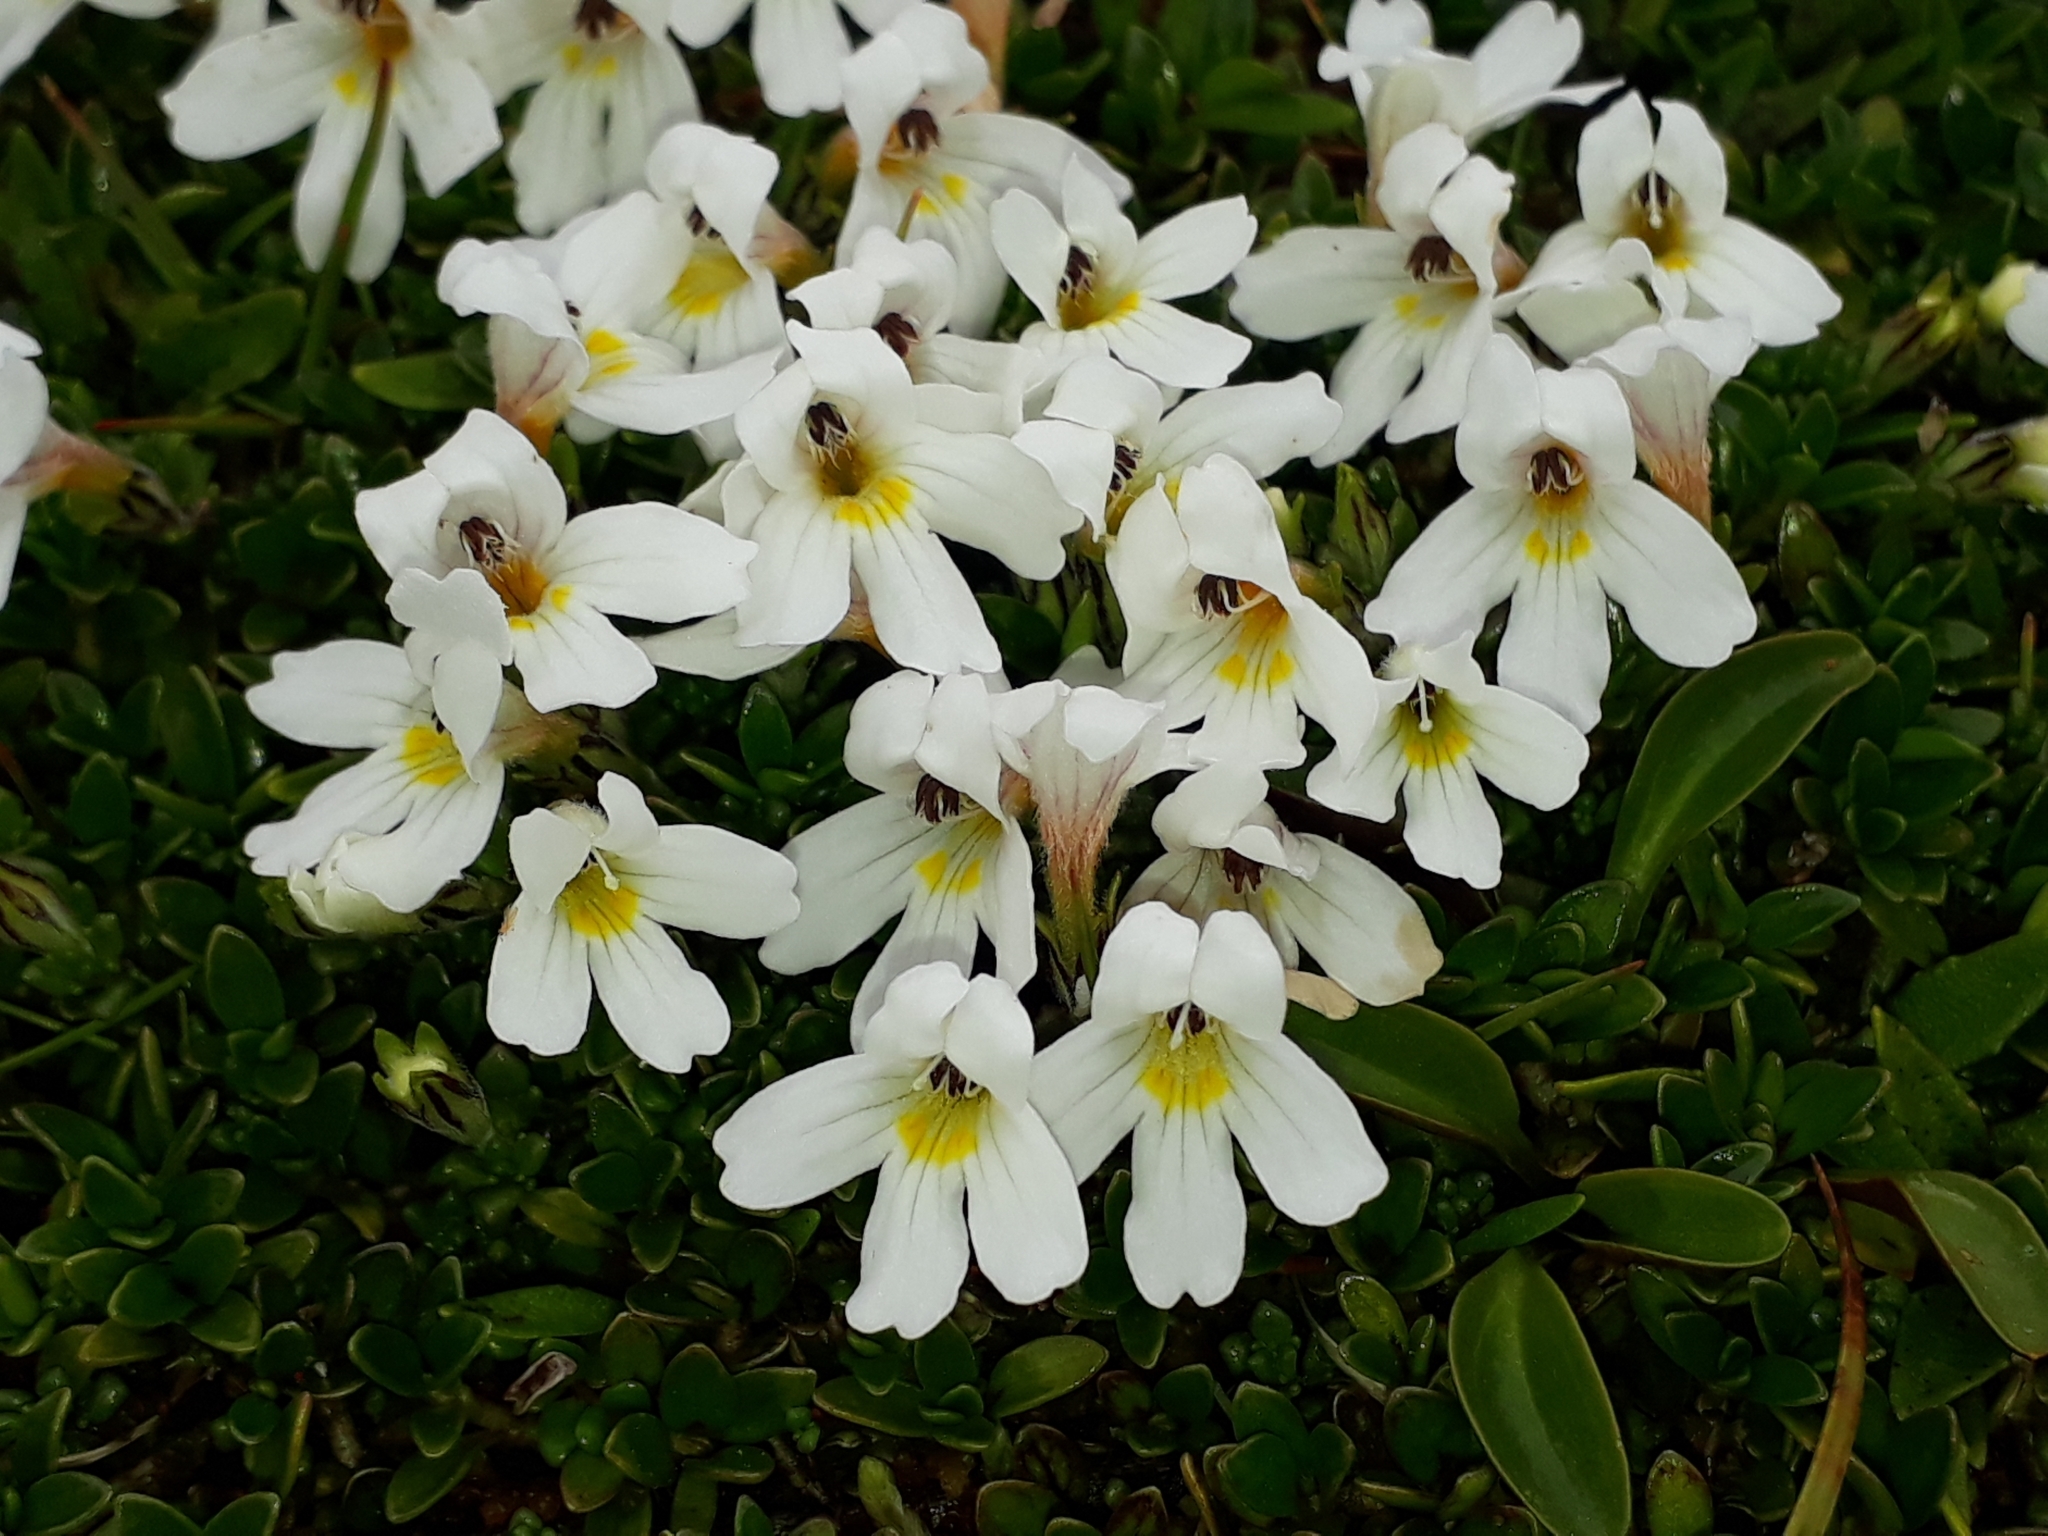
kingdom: Plantae
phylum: Tracheophyta
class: Magnoliopsida
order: Lamiales
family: Orobanchaceae
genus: Euphrasia
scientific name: Euphrasia revoluta
